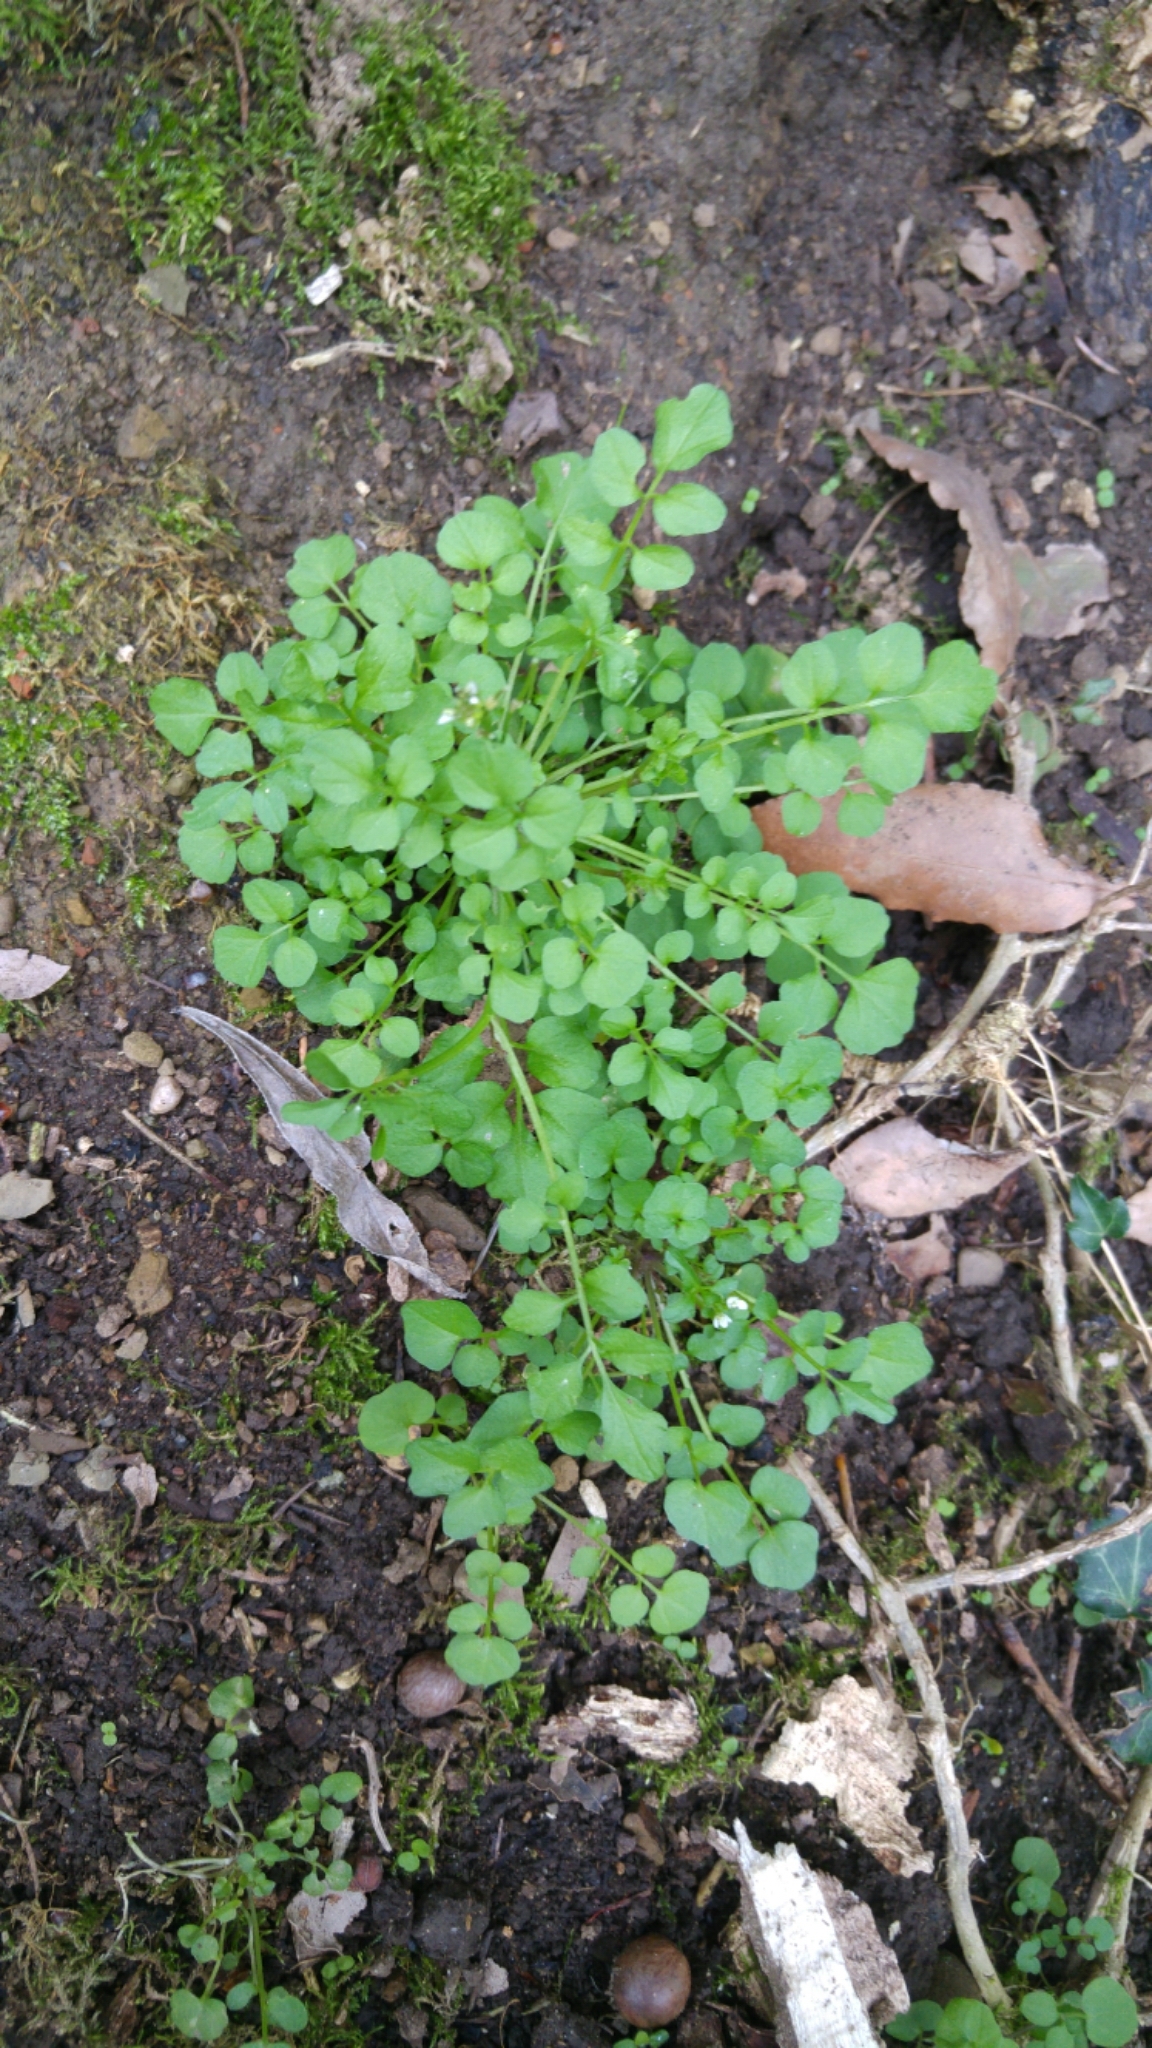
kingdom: Plantae
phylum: Tracheophyta
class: Magnoliopsida
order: Brassicales
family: Brassicaceae
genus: Cardamine
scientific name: Cardamine hirsuta
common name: Hairy bittercress
